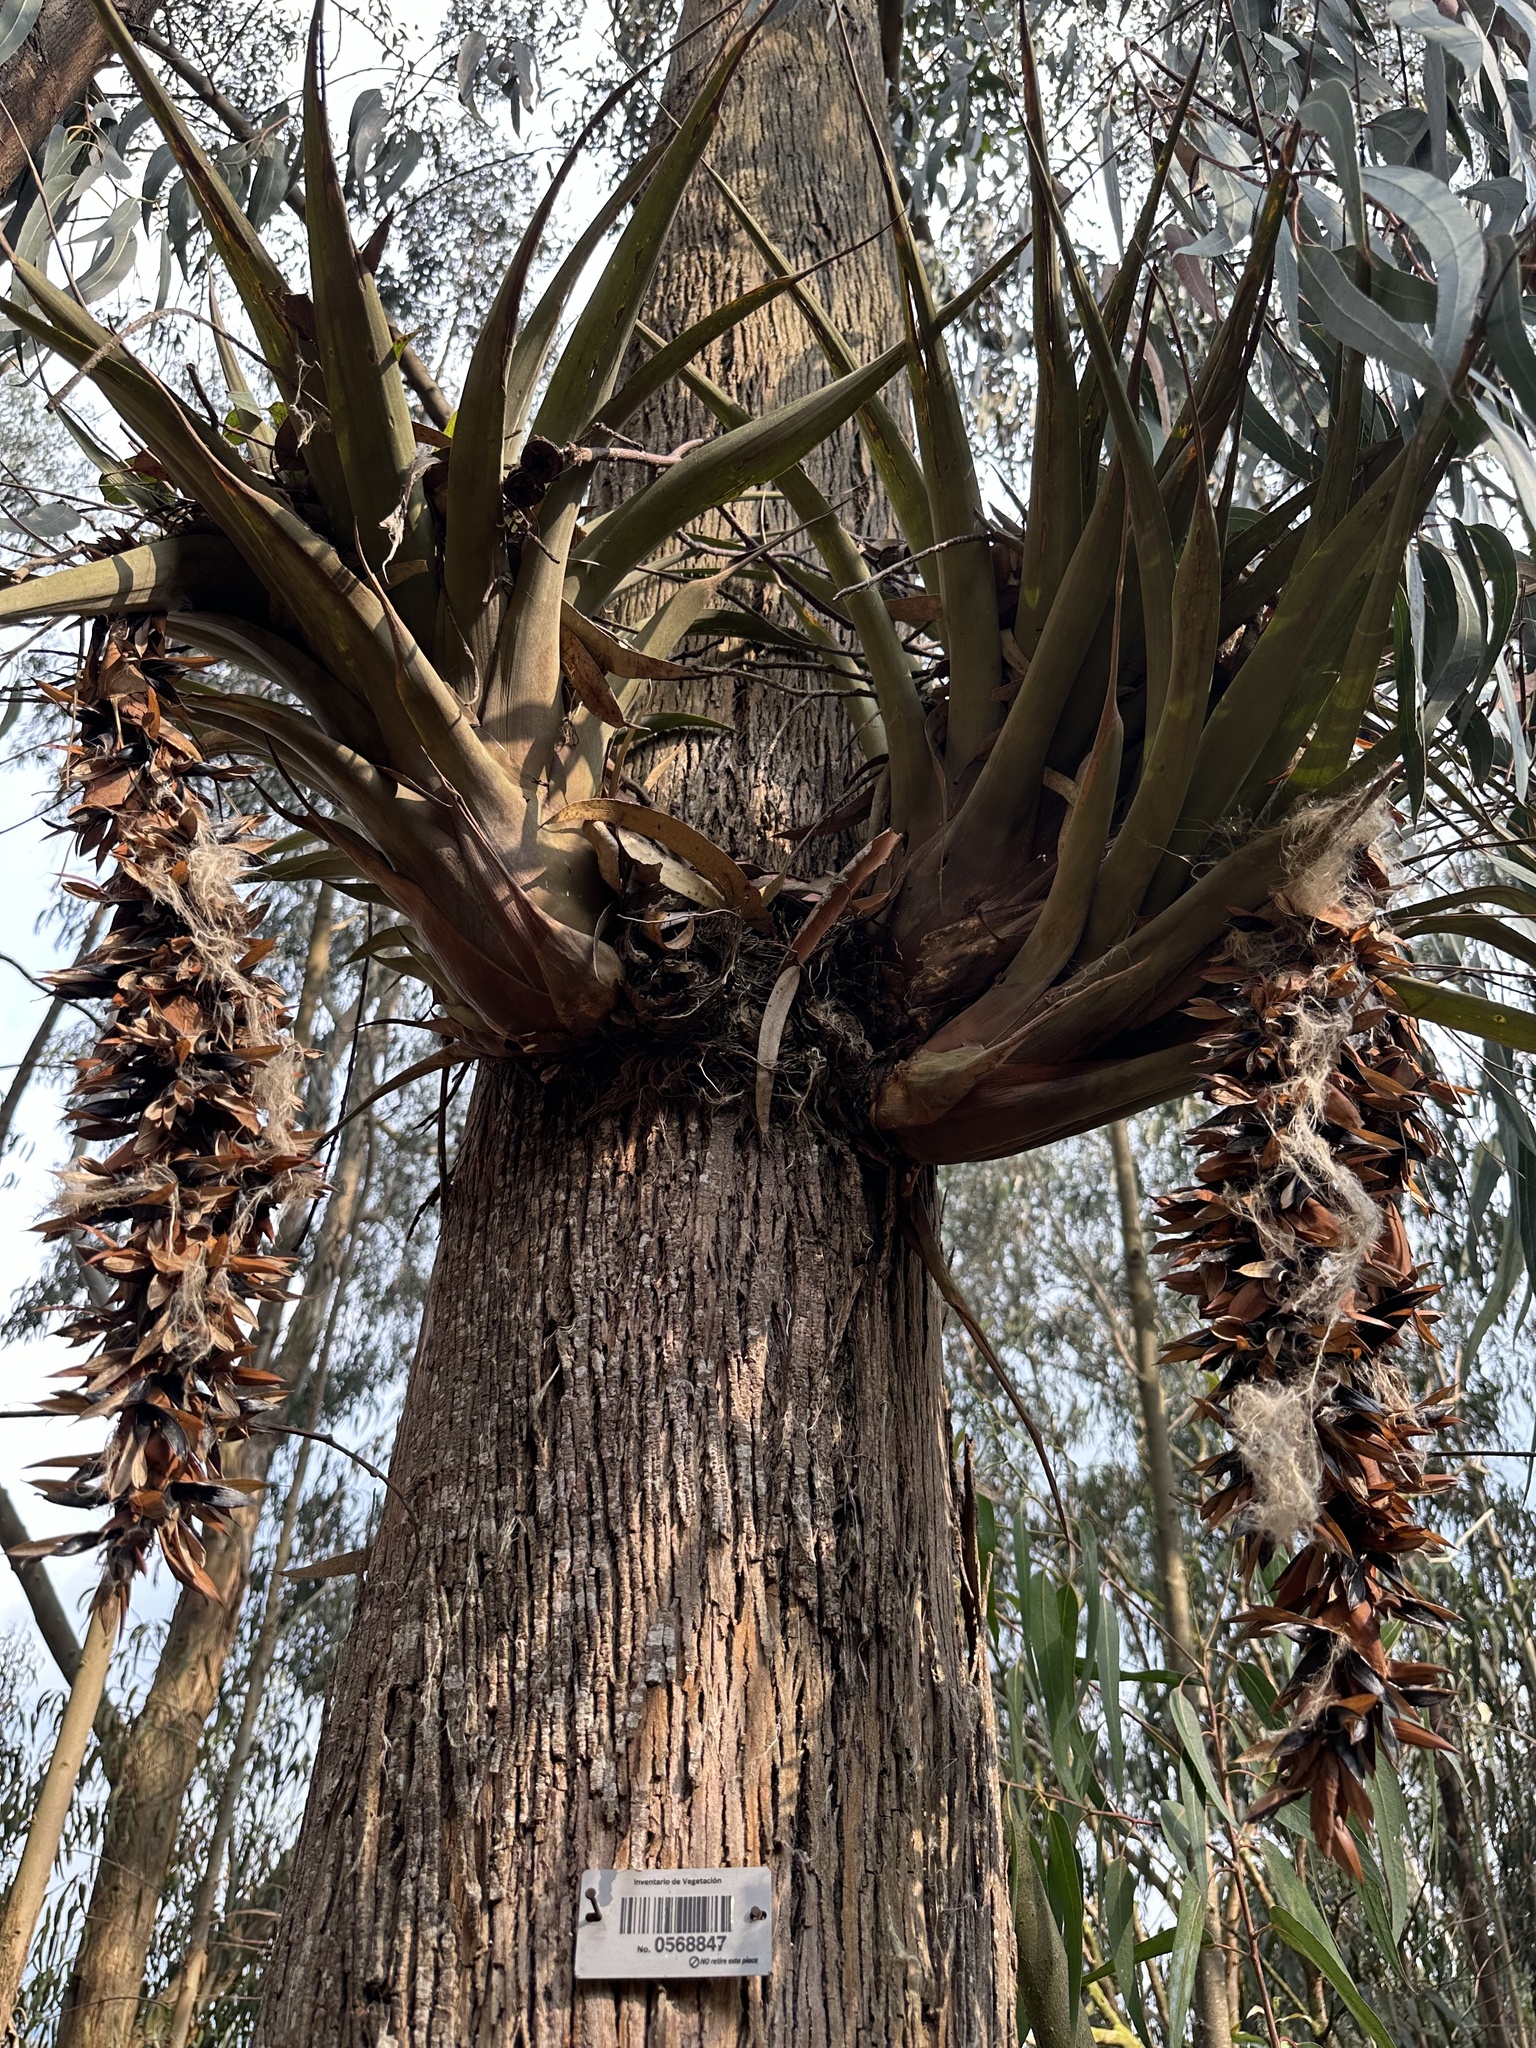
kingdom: Plantae
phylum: Tracheophyta
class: Liliopsida
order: Poales
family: Bromeliaceae
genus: Vriesea
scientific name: Vriesea tequendamae
